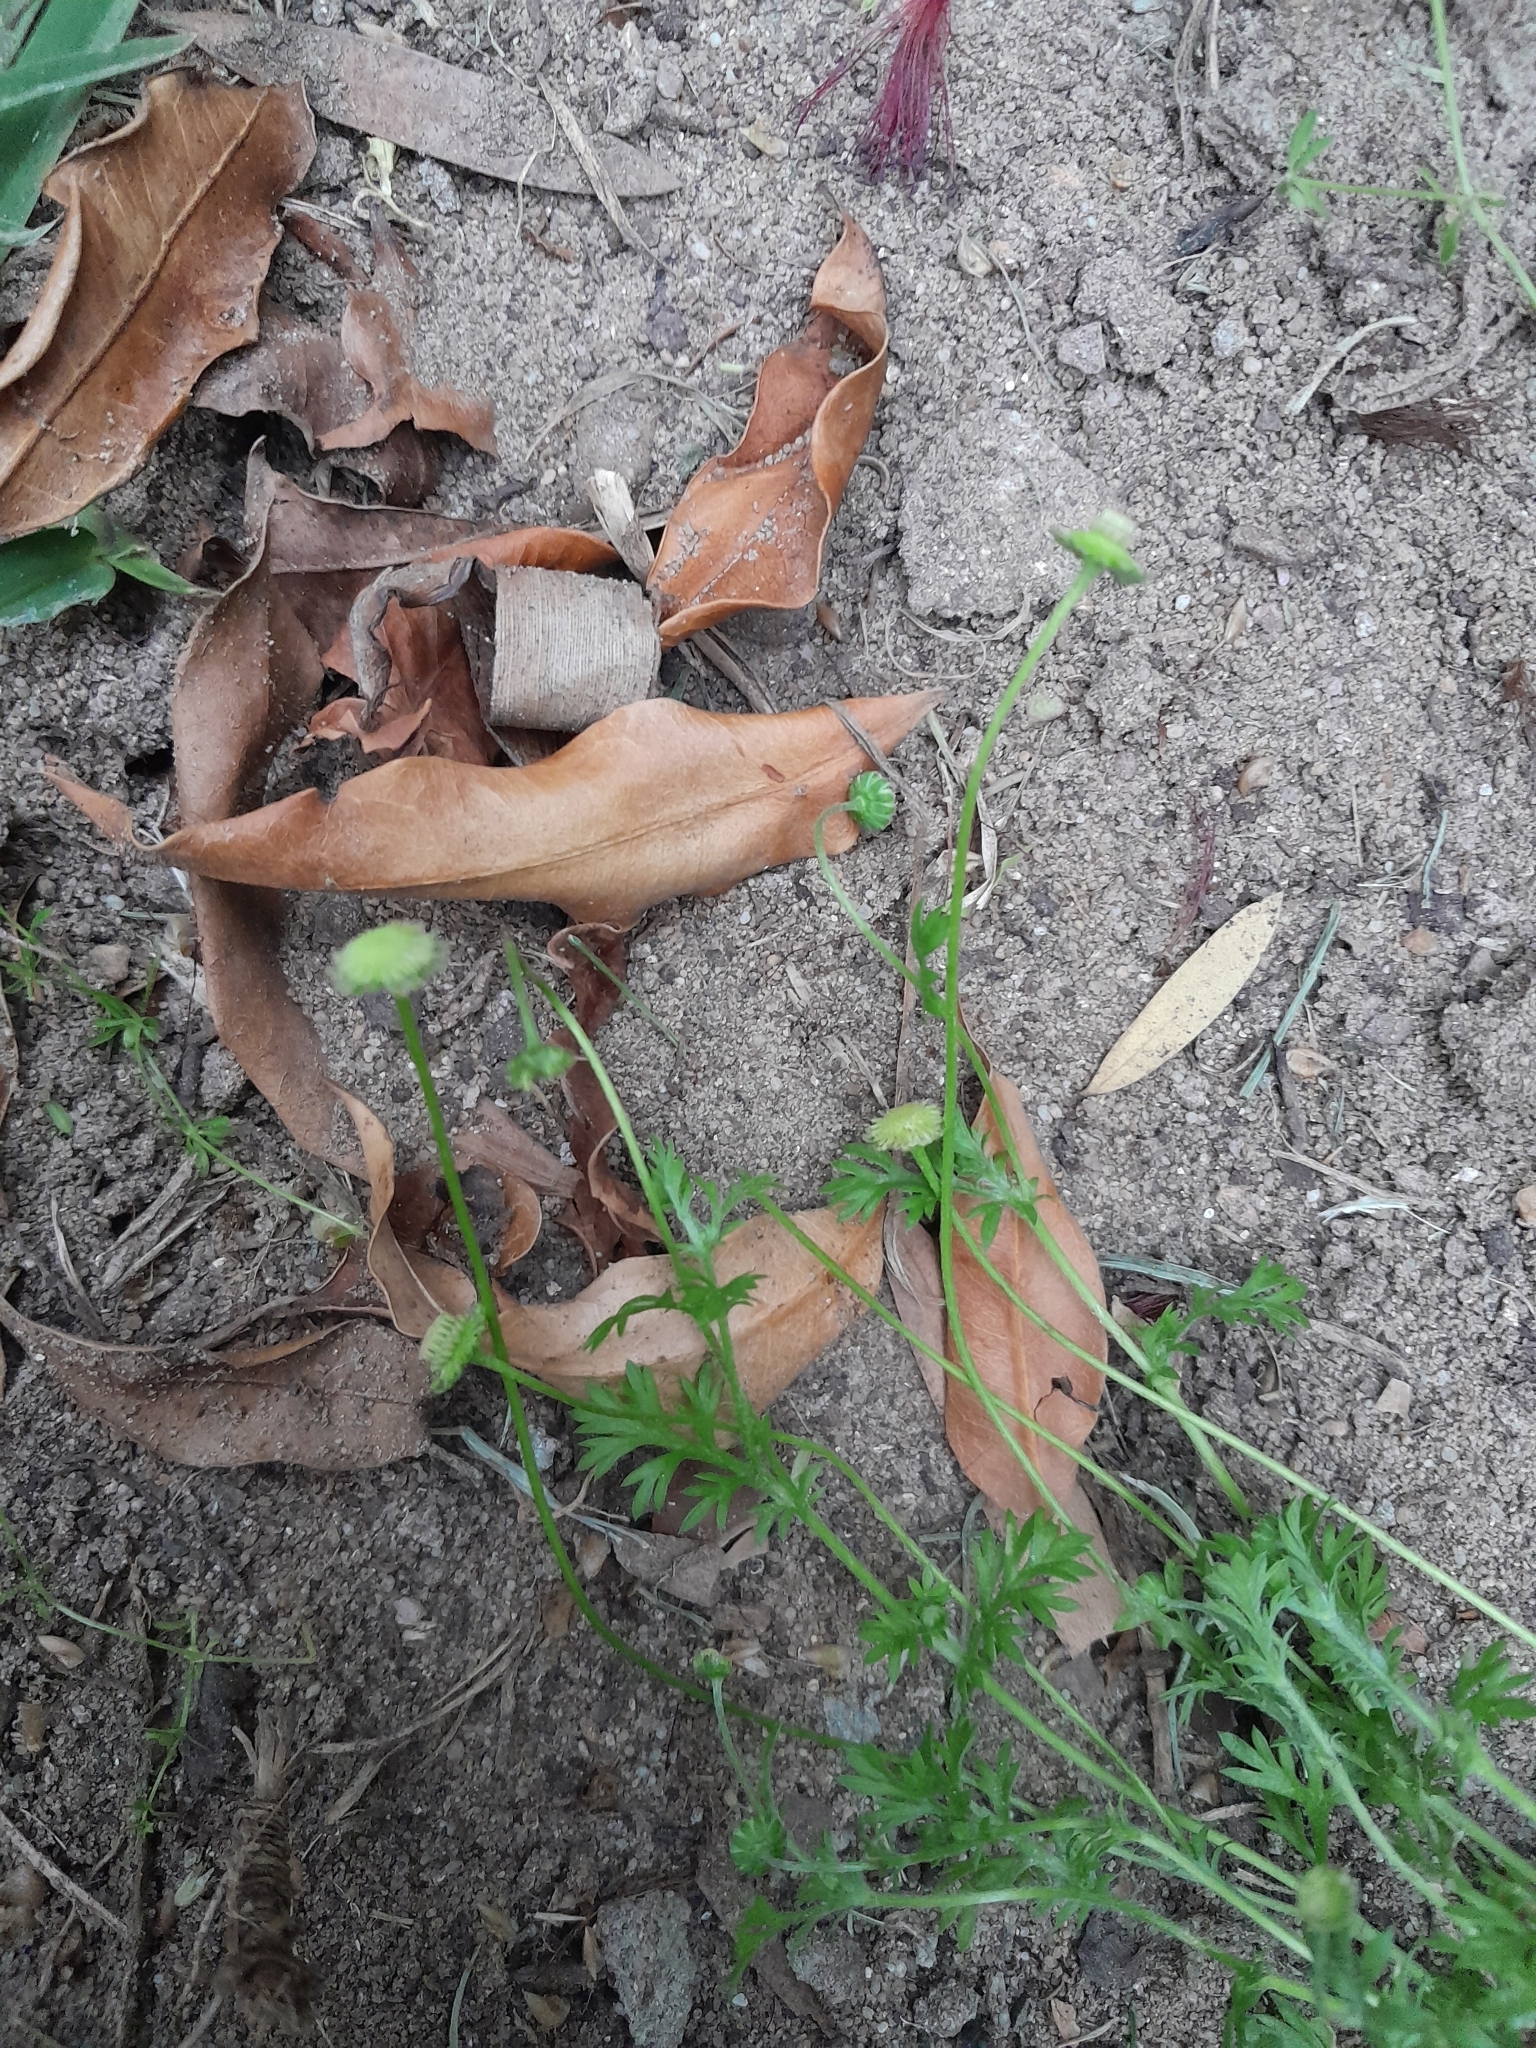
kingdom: Plantae
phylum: Tracheophyta
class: Magnoliopsida
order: Asterales
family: Asteraceae
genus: Cotula
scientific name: Cotula australis
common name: Australian waterbuttons
